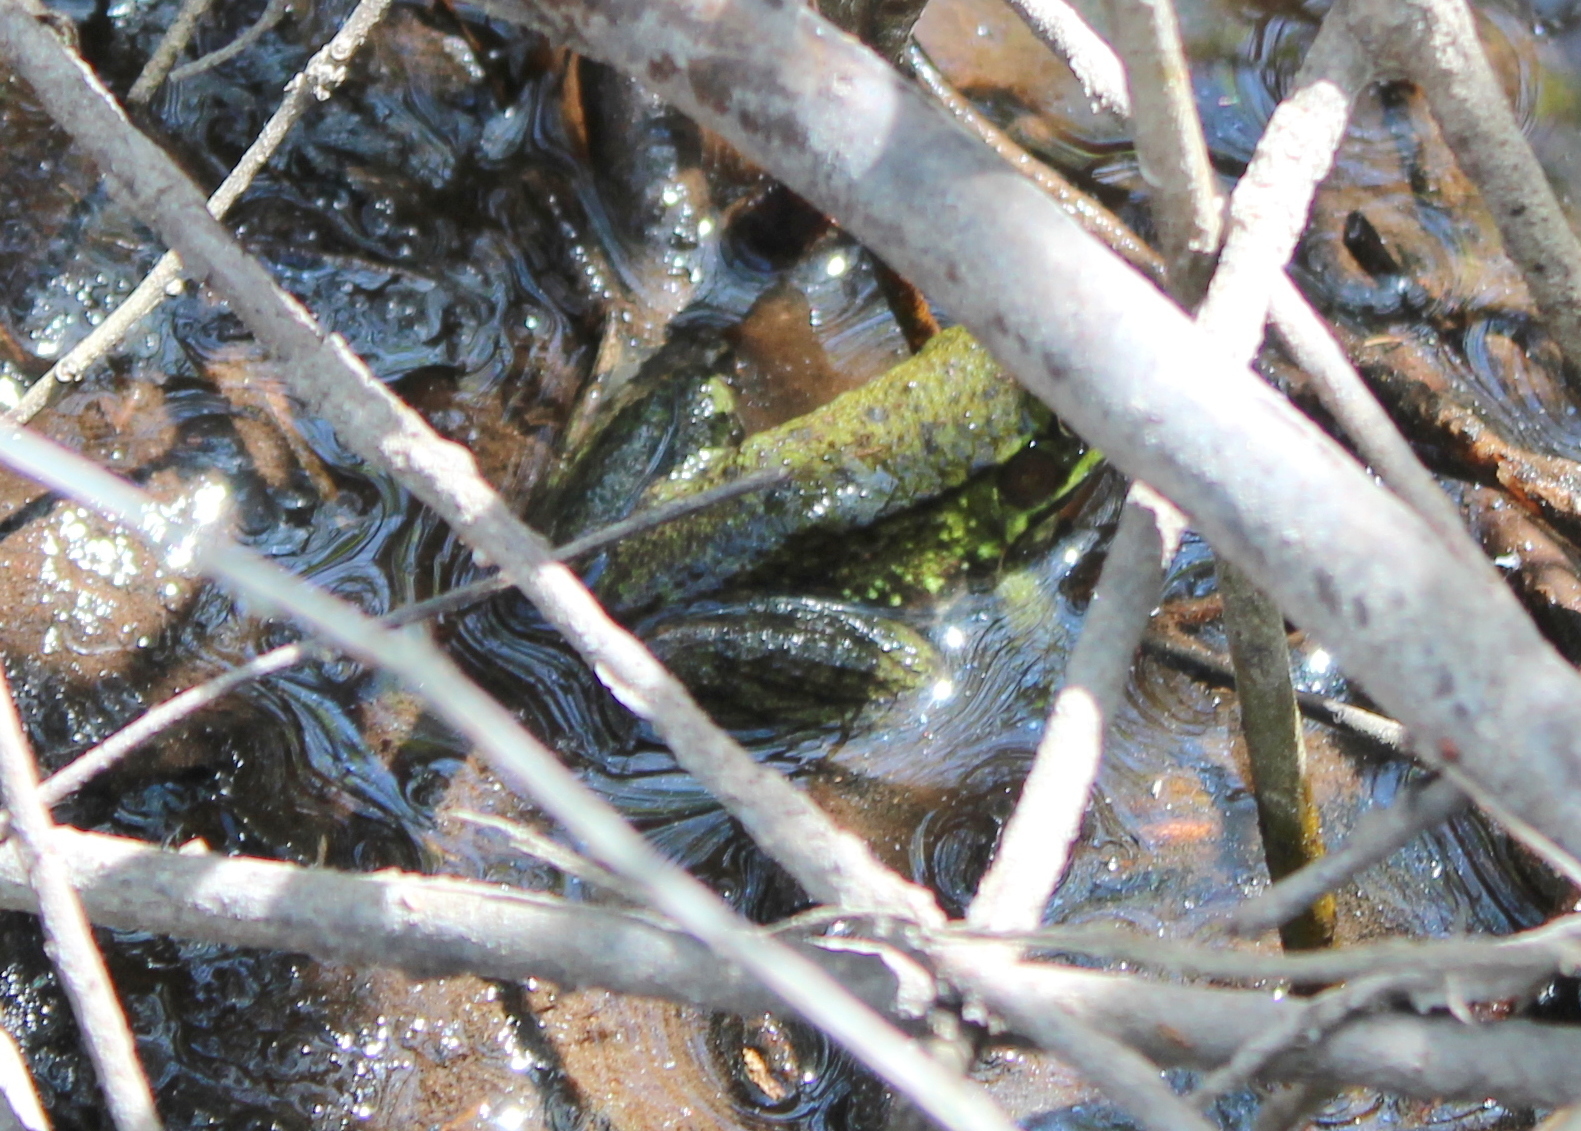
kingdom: Animalia
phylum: Chordata
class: Amphibia
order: Anura
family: Ranidae
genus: Lithobates
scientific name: Lithobates clamitans
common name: Green frog
